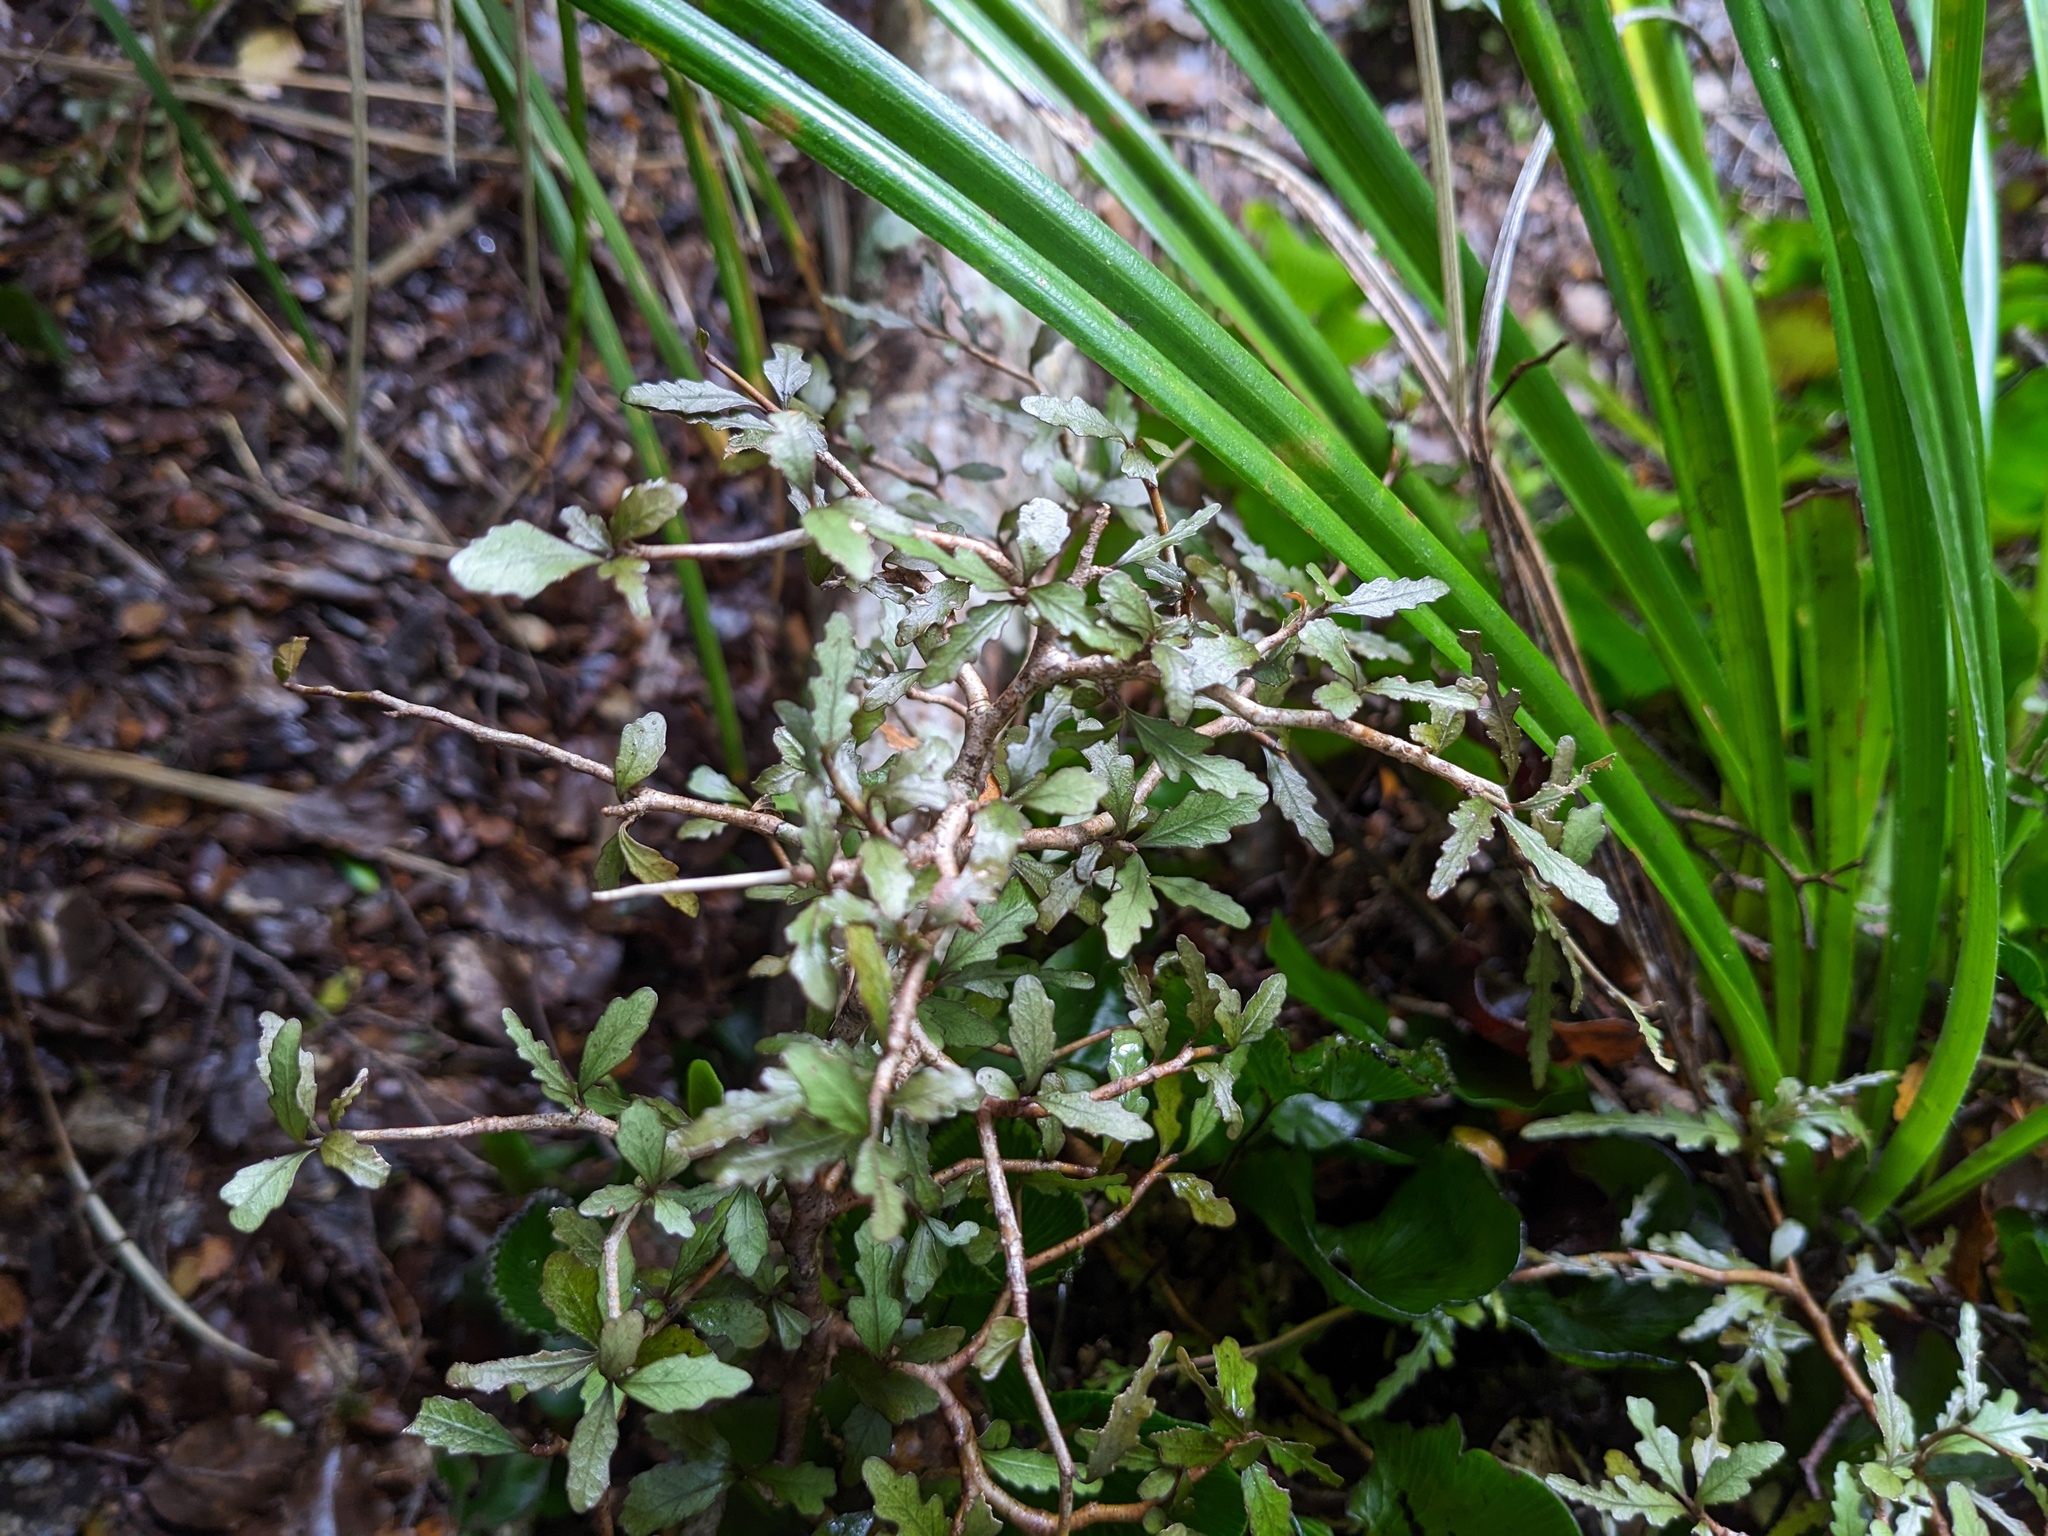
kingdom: Plantae
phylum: Tracheophyta
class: Magnoliopsida
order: Oxalidales
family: Elaeocarpaceae
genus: Elaeocarpus
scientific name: Elaeocarpus hookerianus
